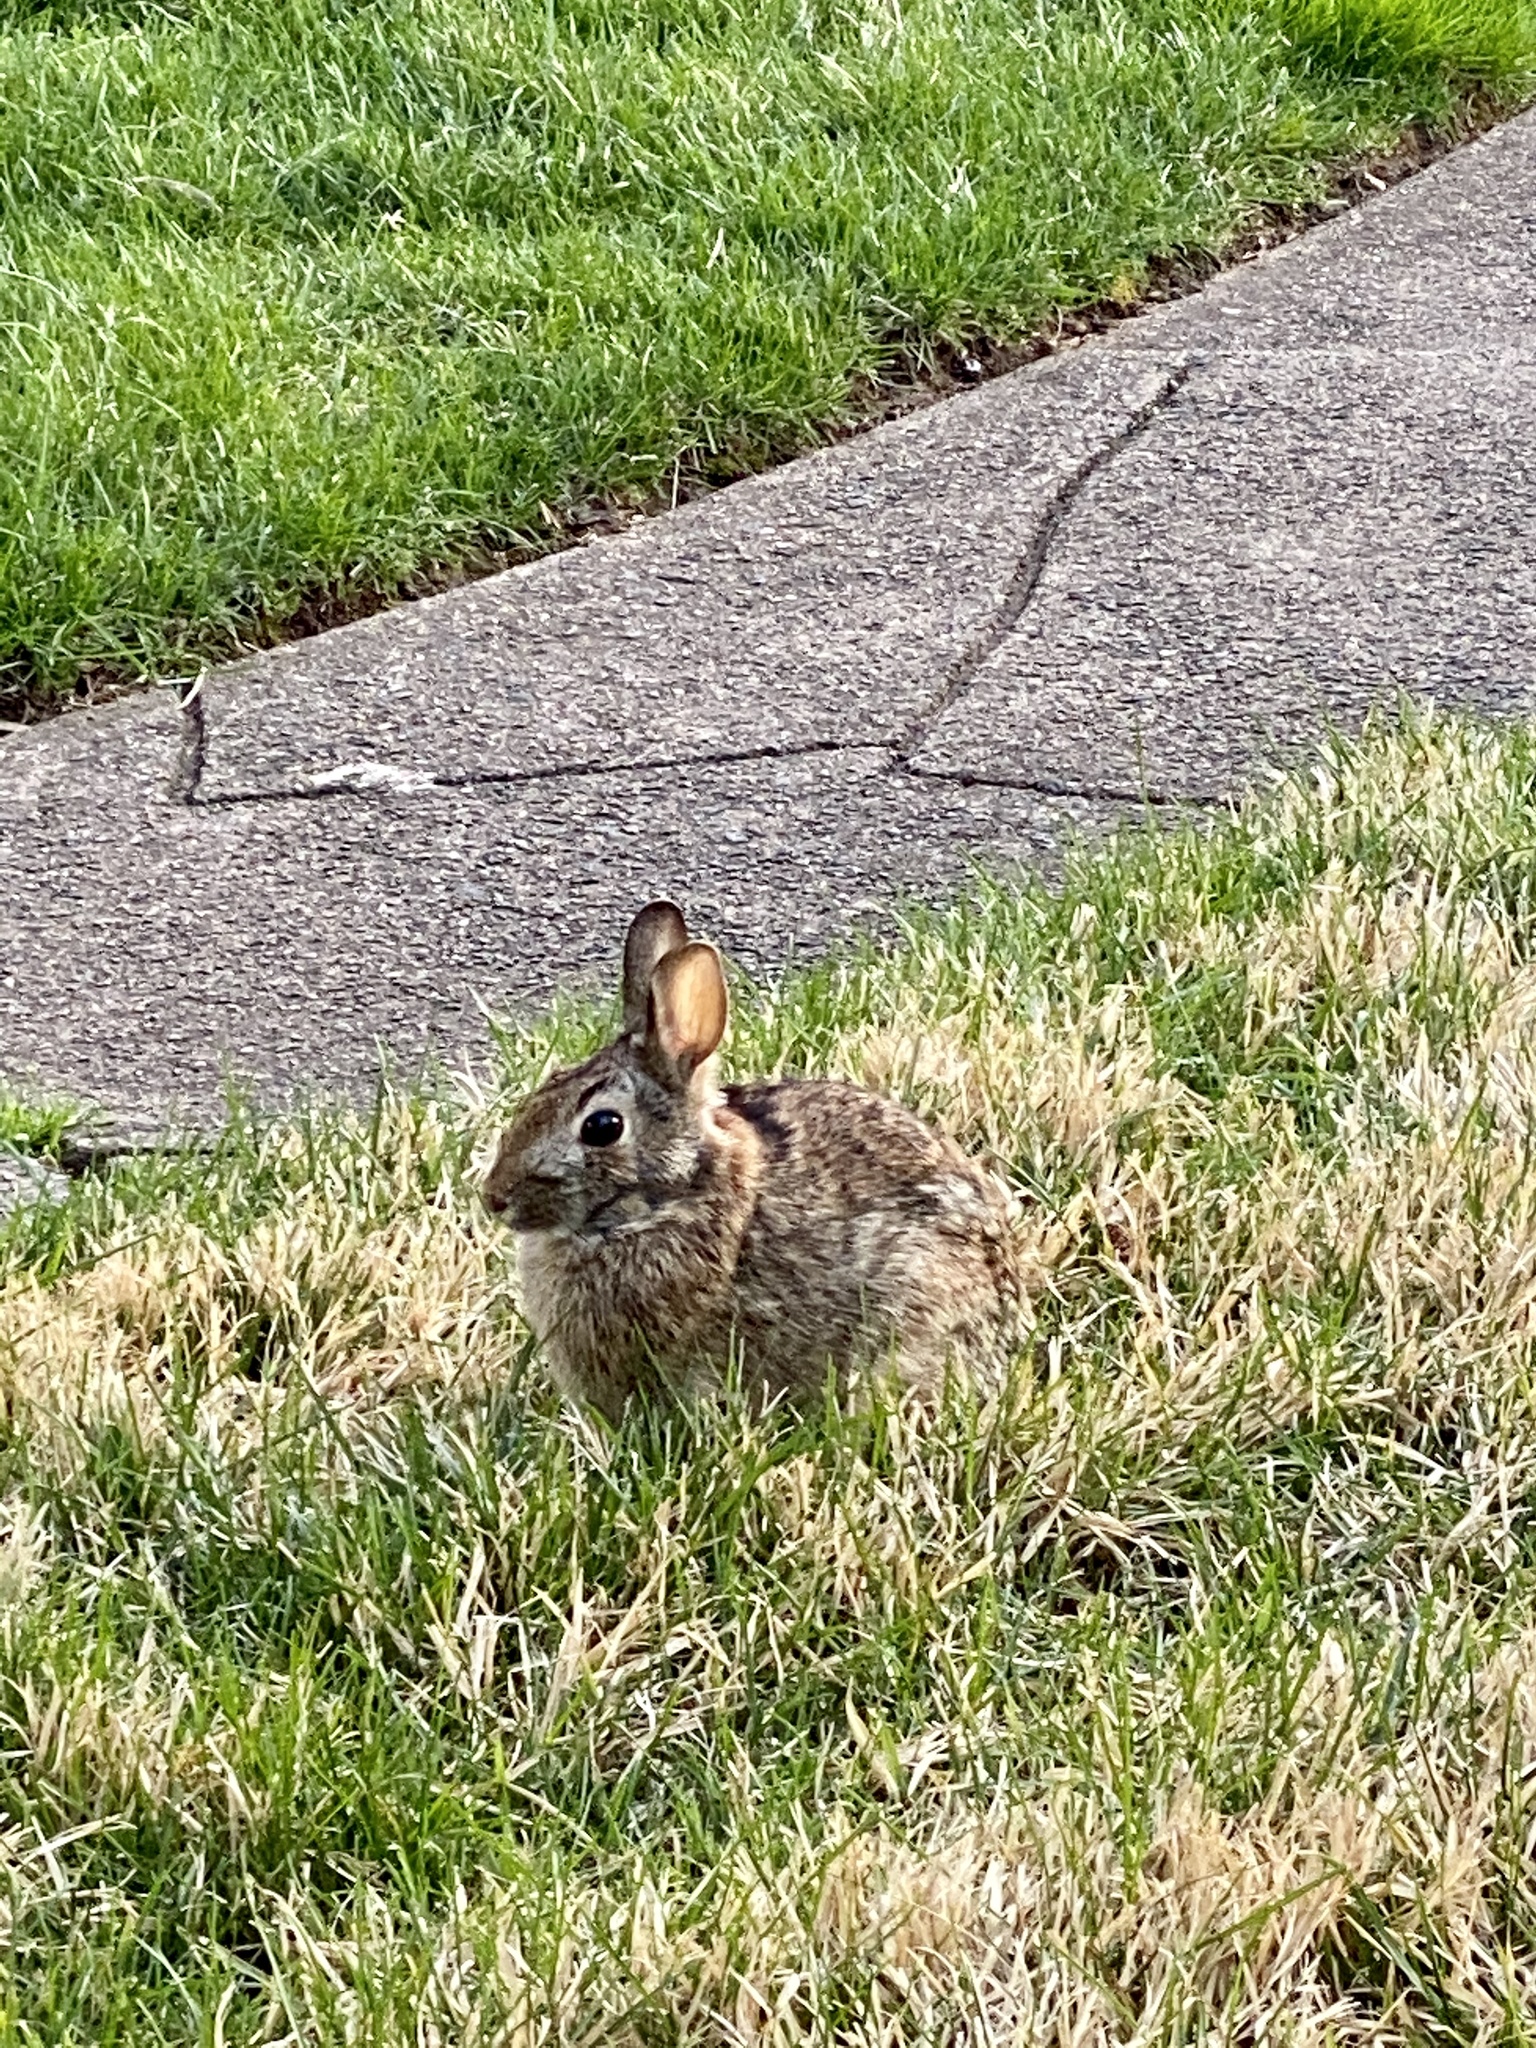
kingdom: Animalia
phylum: Chordata
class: Mammalia
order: Lagomorpha
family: Leporidae
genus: Sylvilagus
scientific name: Sylvilagus floridanus
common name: Eastern cottontail
